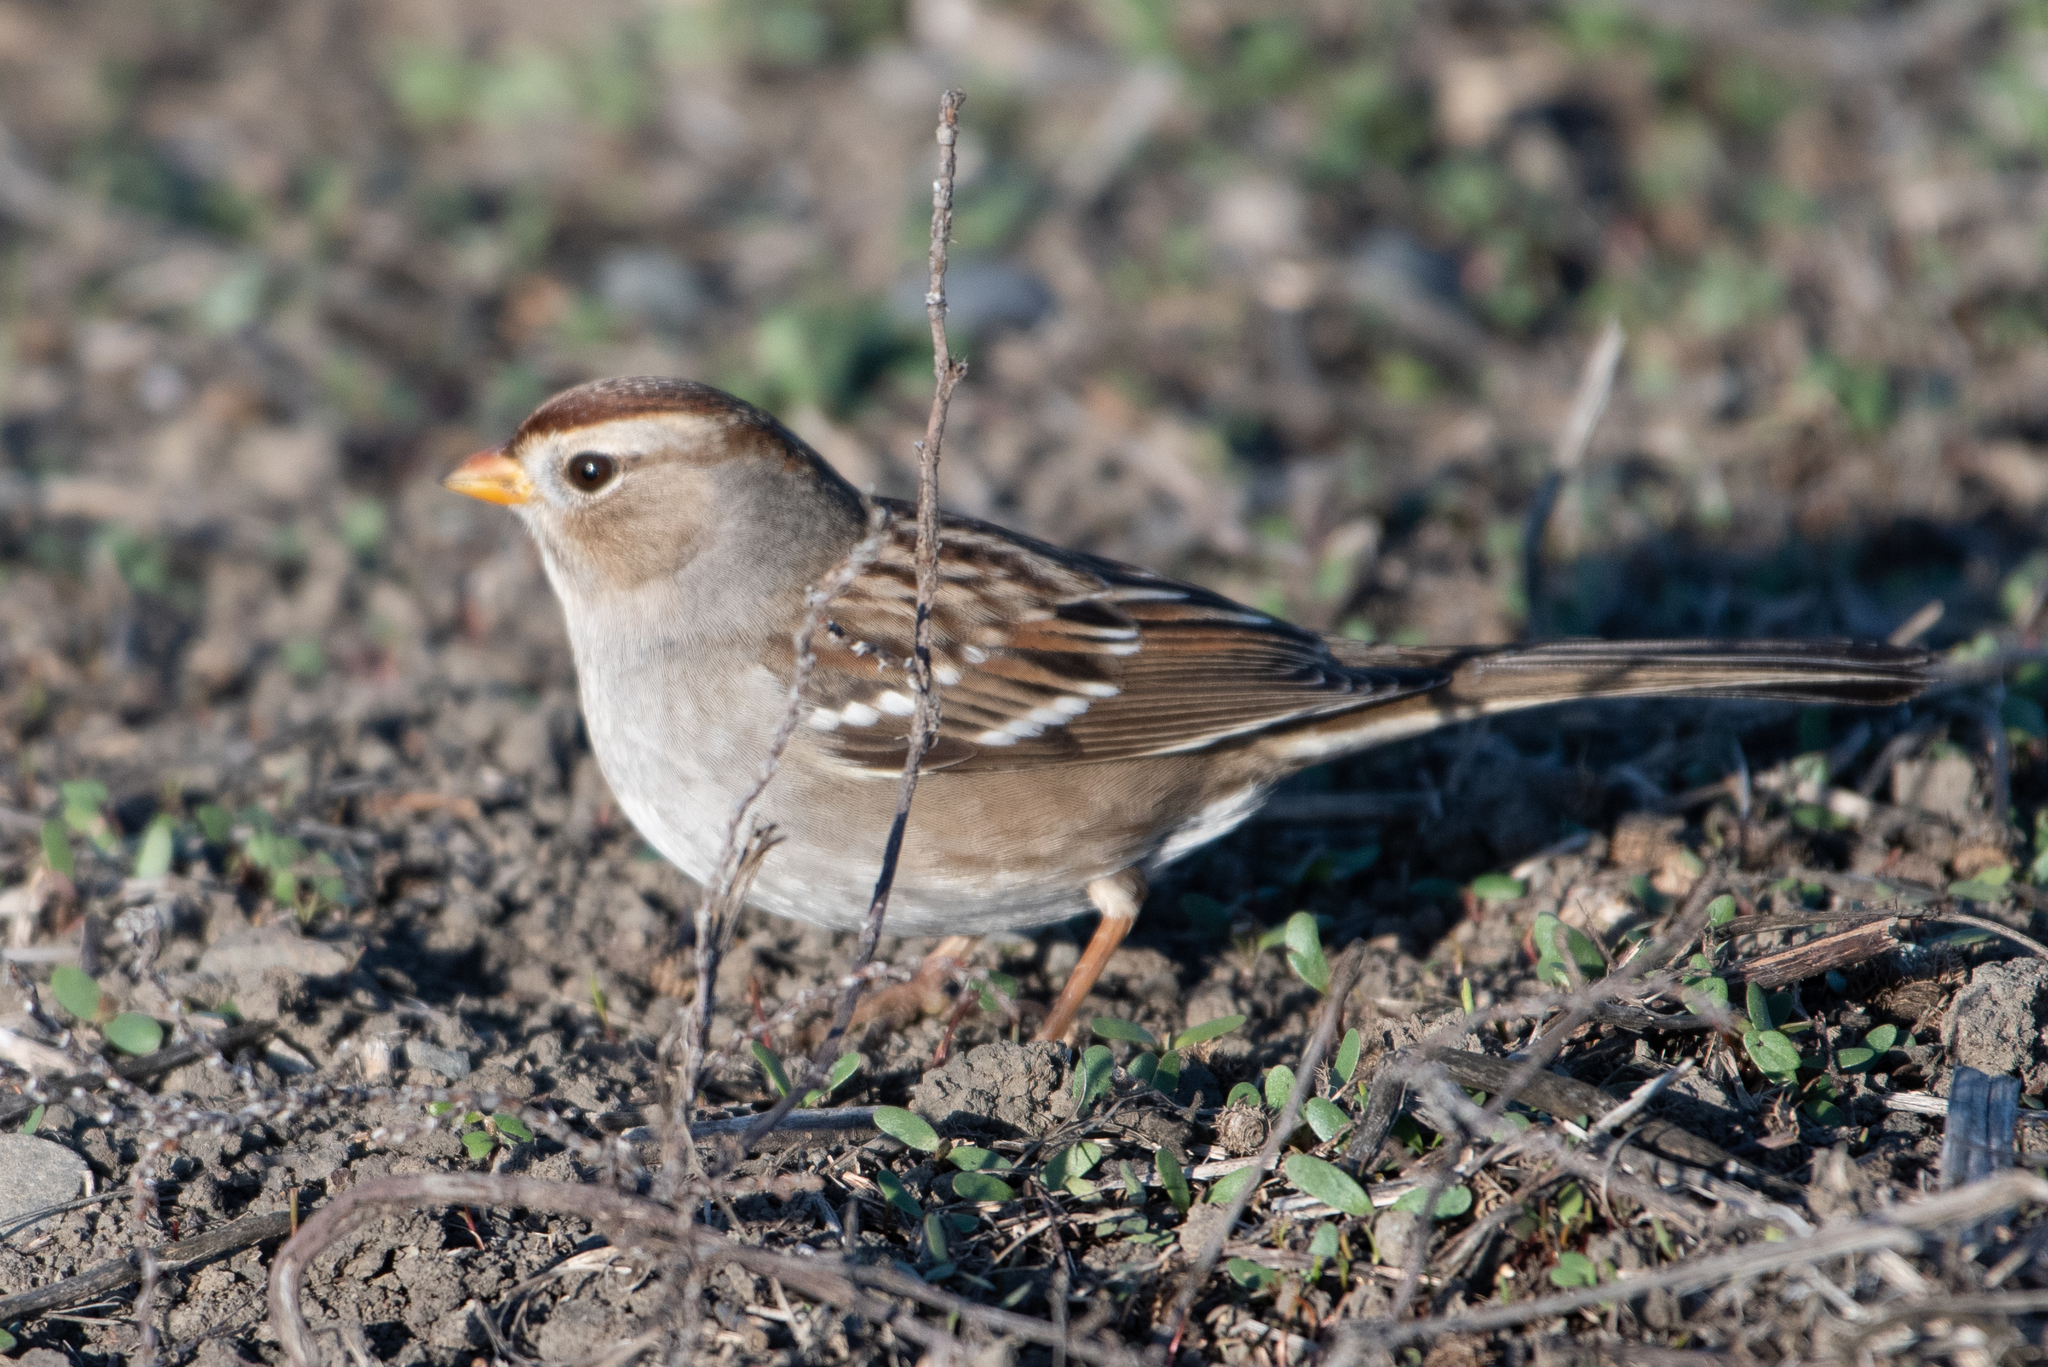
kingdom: Animalia
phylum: Chordata
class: Aves
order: Passeriformes
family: Passerellidae
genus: Zonotrichia
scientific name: Zonotrichia leucophrys
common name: White-crowned sparrow
